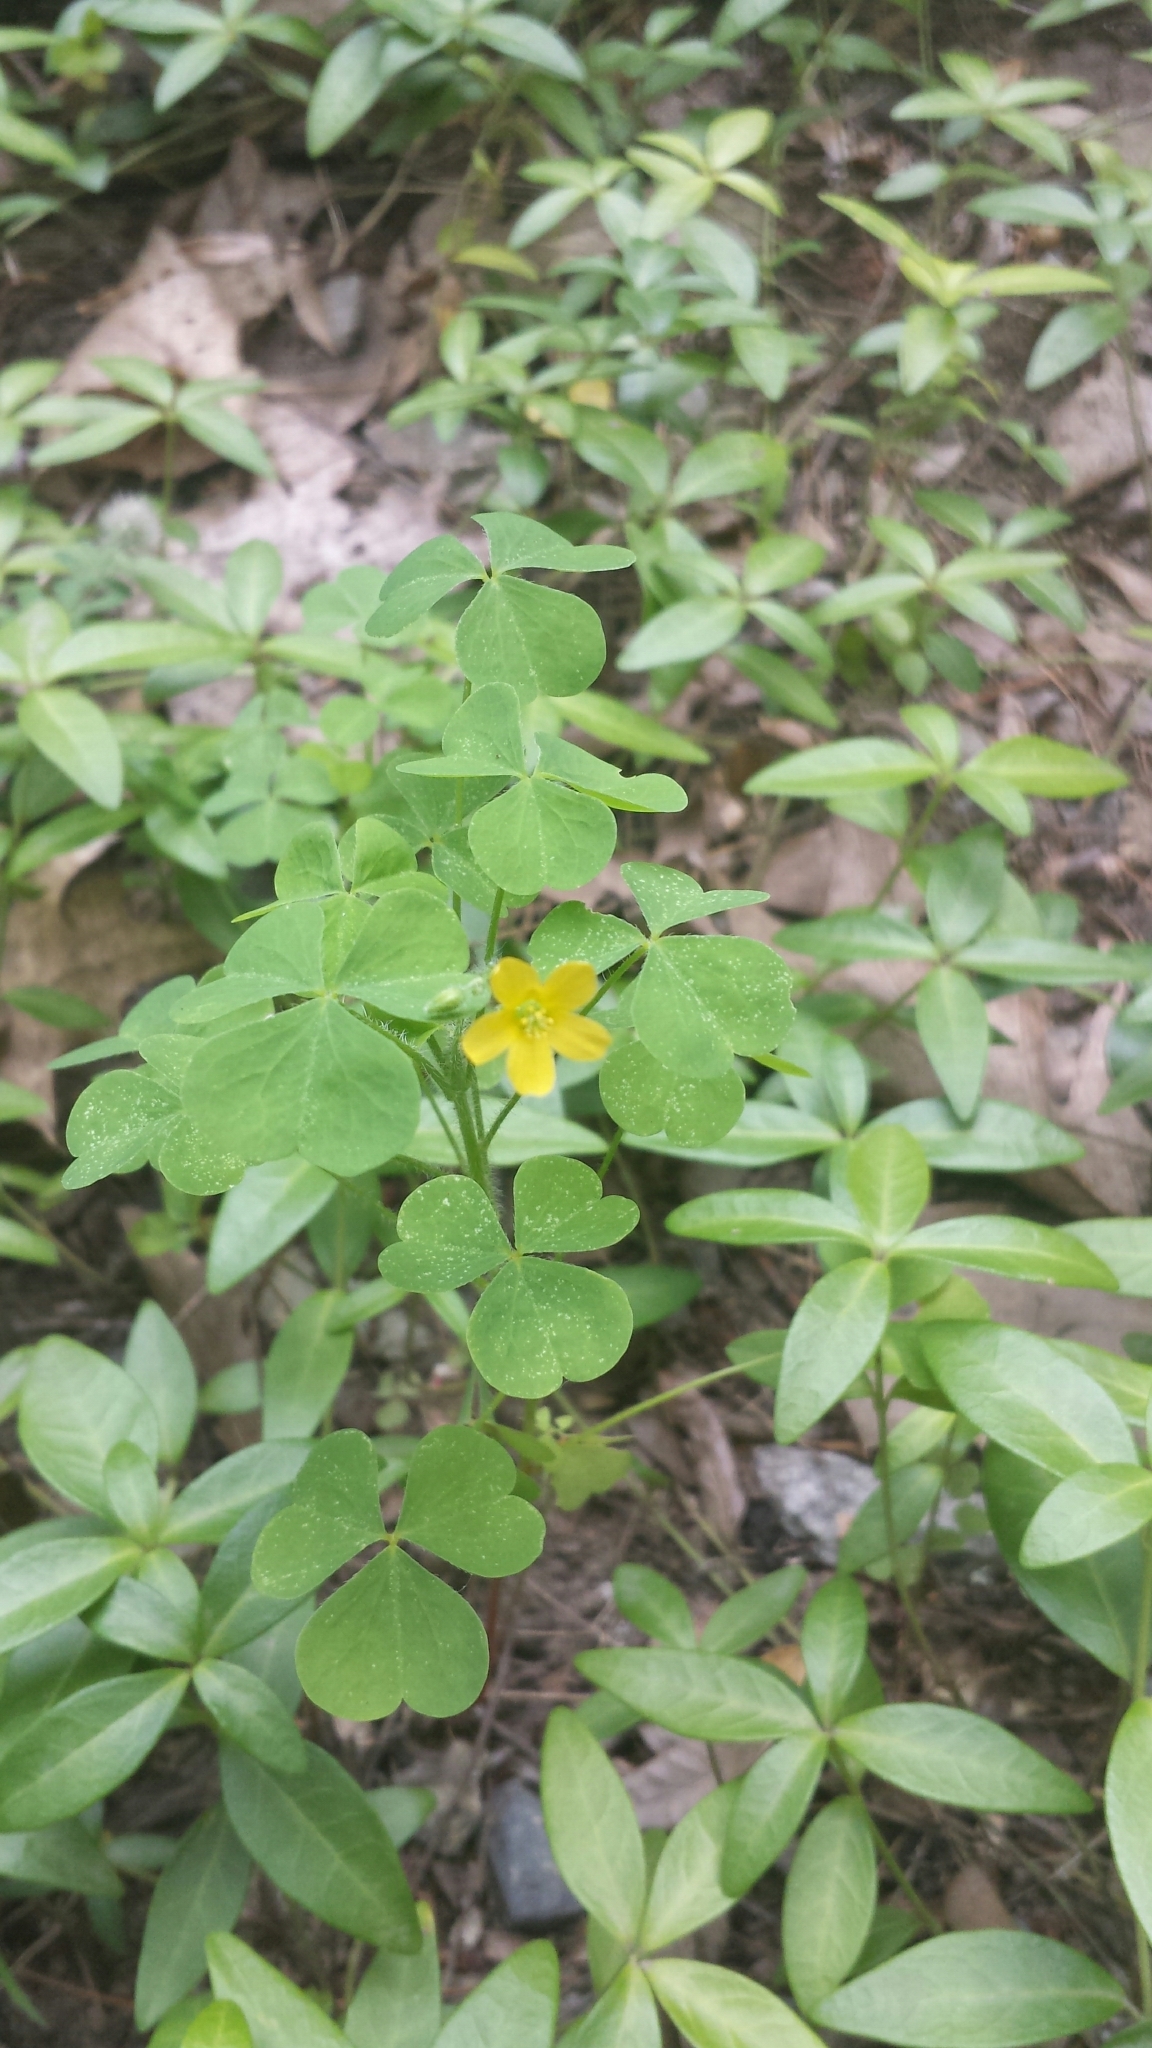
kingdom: Plantae
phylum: Tracheophyta
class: Magnoliopsida
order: Oxalidales
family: Oxalidaceae
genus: Oxalis
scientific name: Oxalis stricta
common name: Upright yellow-sorrel
